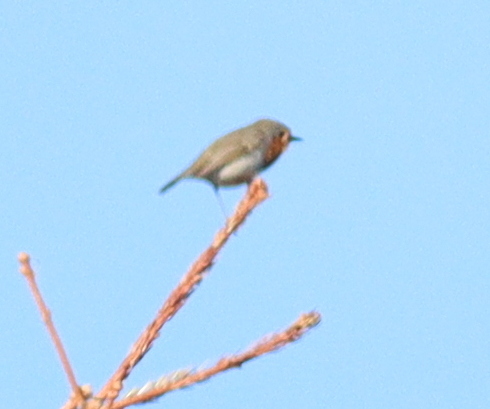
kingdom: Animalia
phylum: Chordata
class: Aves
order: Passeriformes
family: Muscicapidae
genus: Erithacus
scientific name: Erithacus rubecula
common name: European robin
